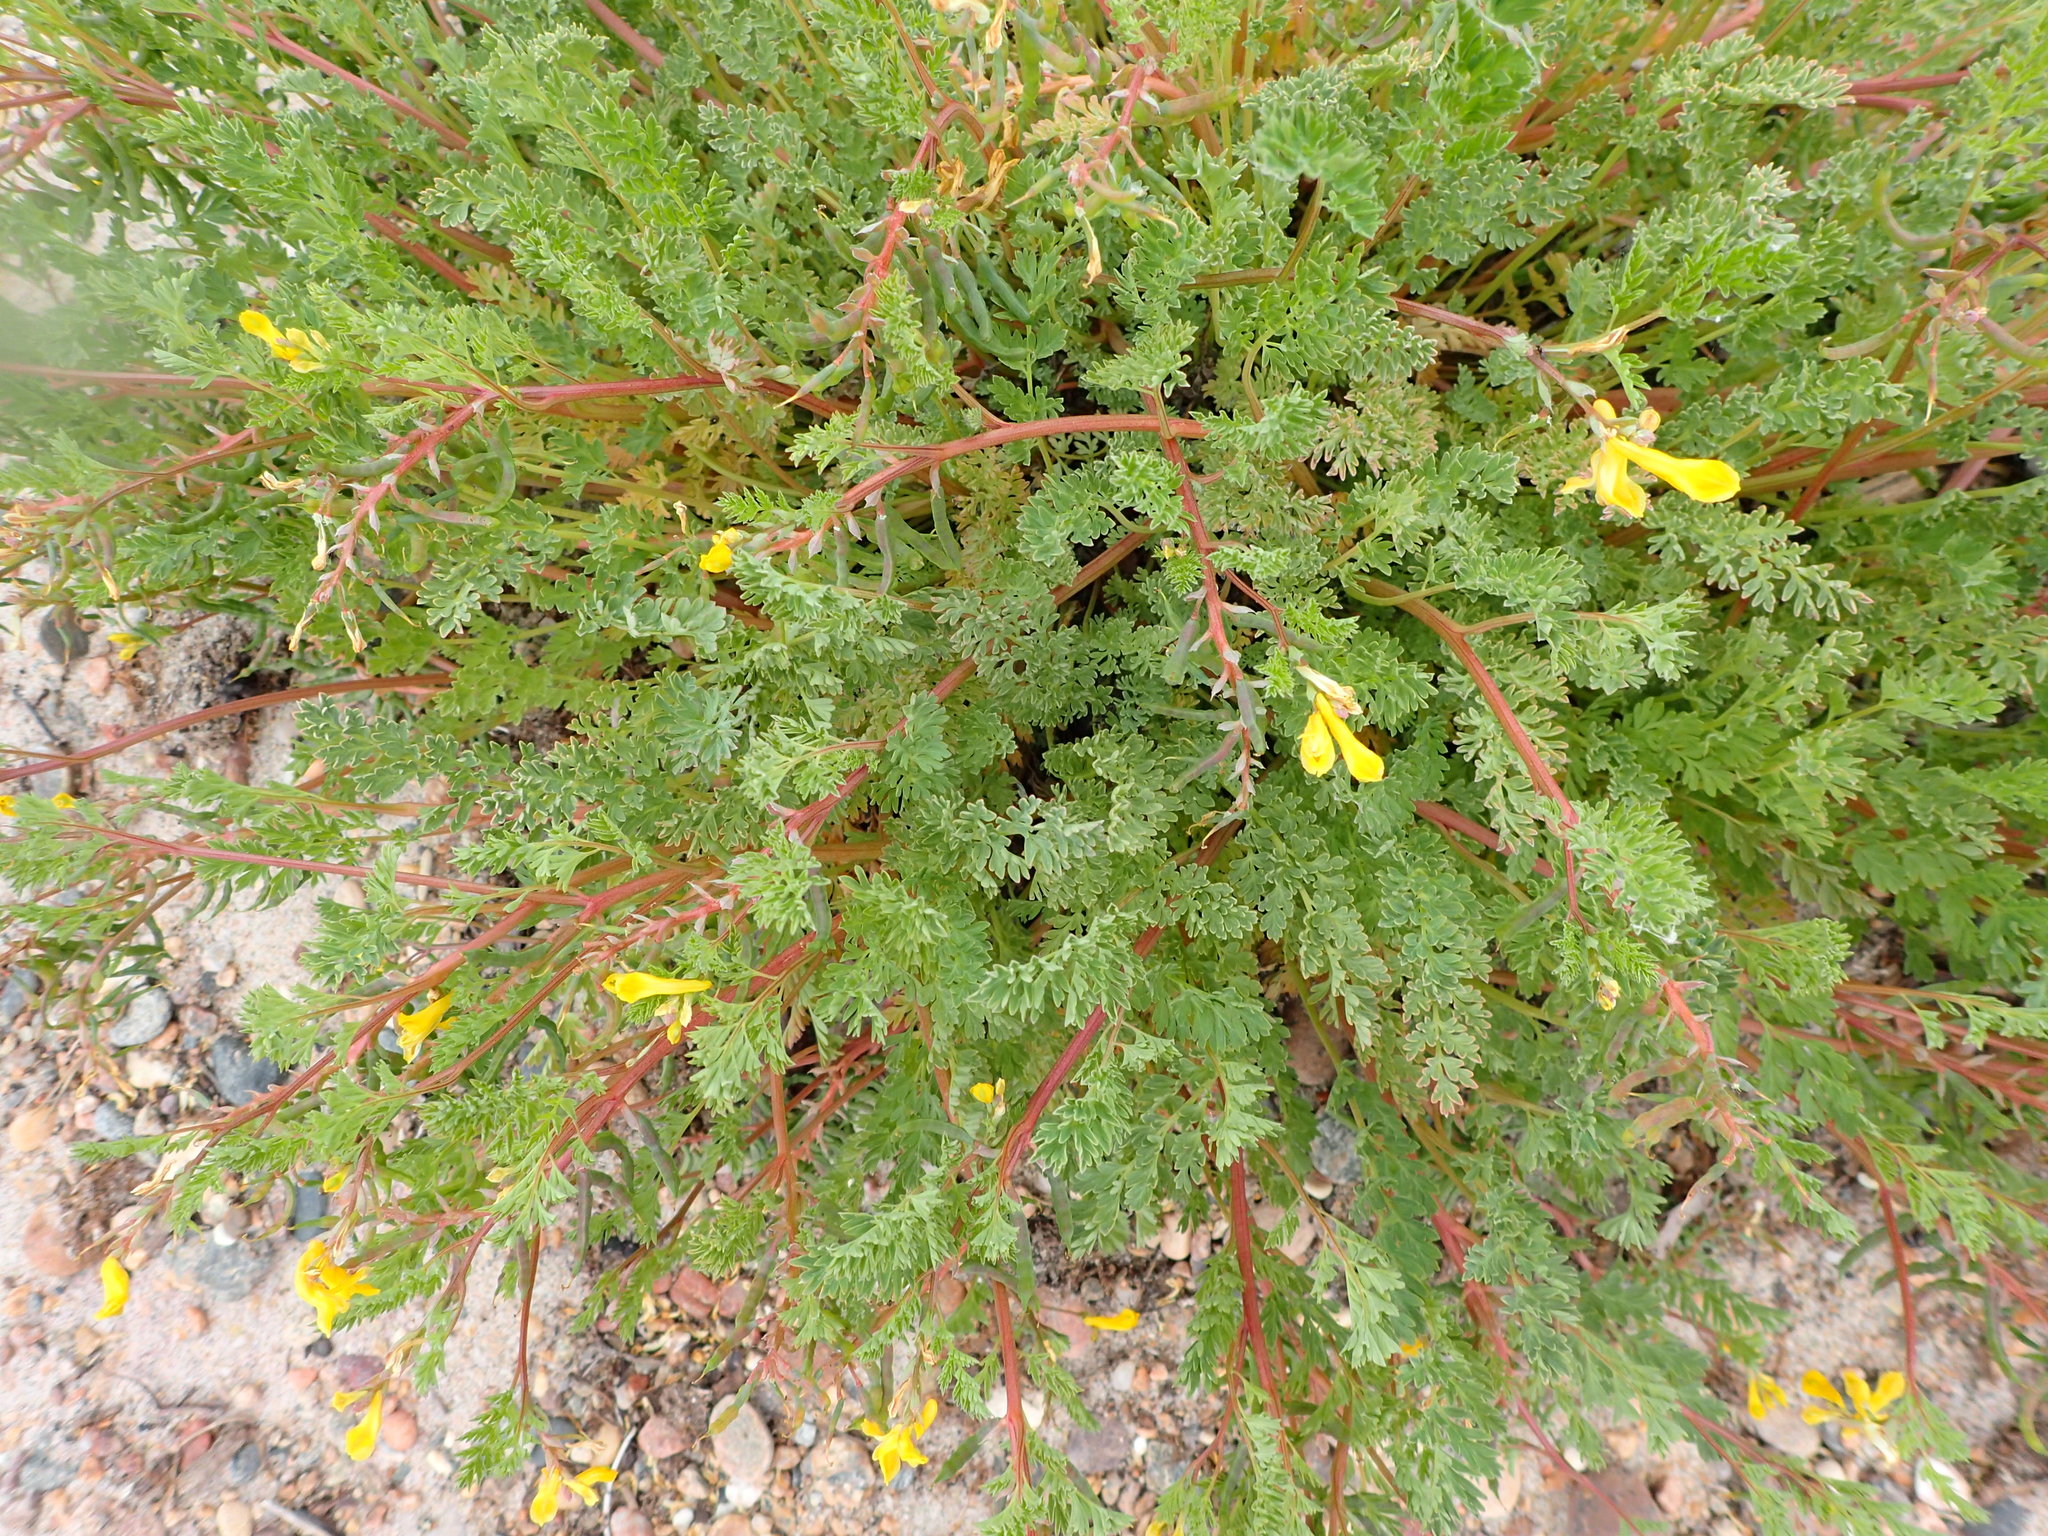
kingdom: Plantae
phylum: Tracheophyta
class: Magnoliopsida
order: Ranunculales
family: Papaveraceae
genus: Corydalis
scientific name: Corydalis aurea
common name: Golden corydalis
